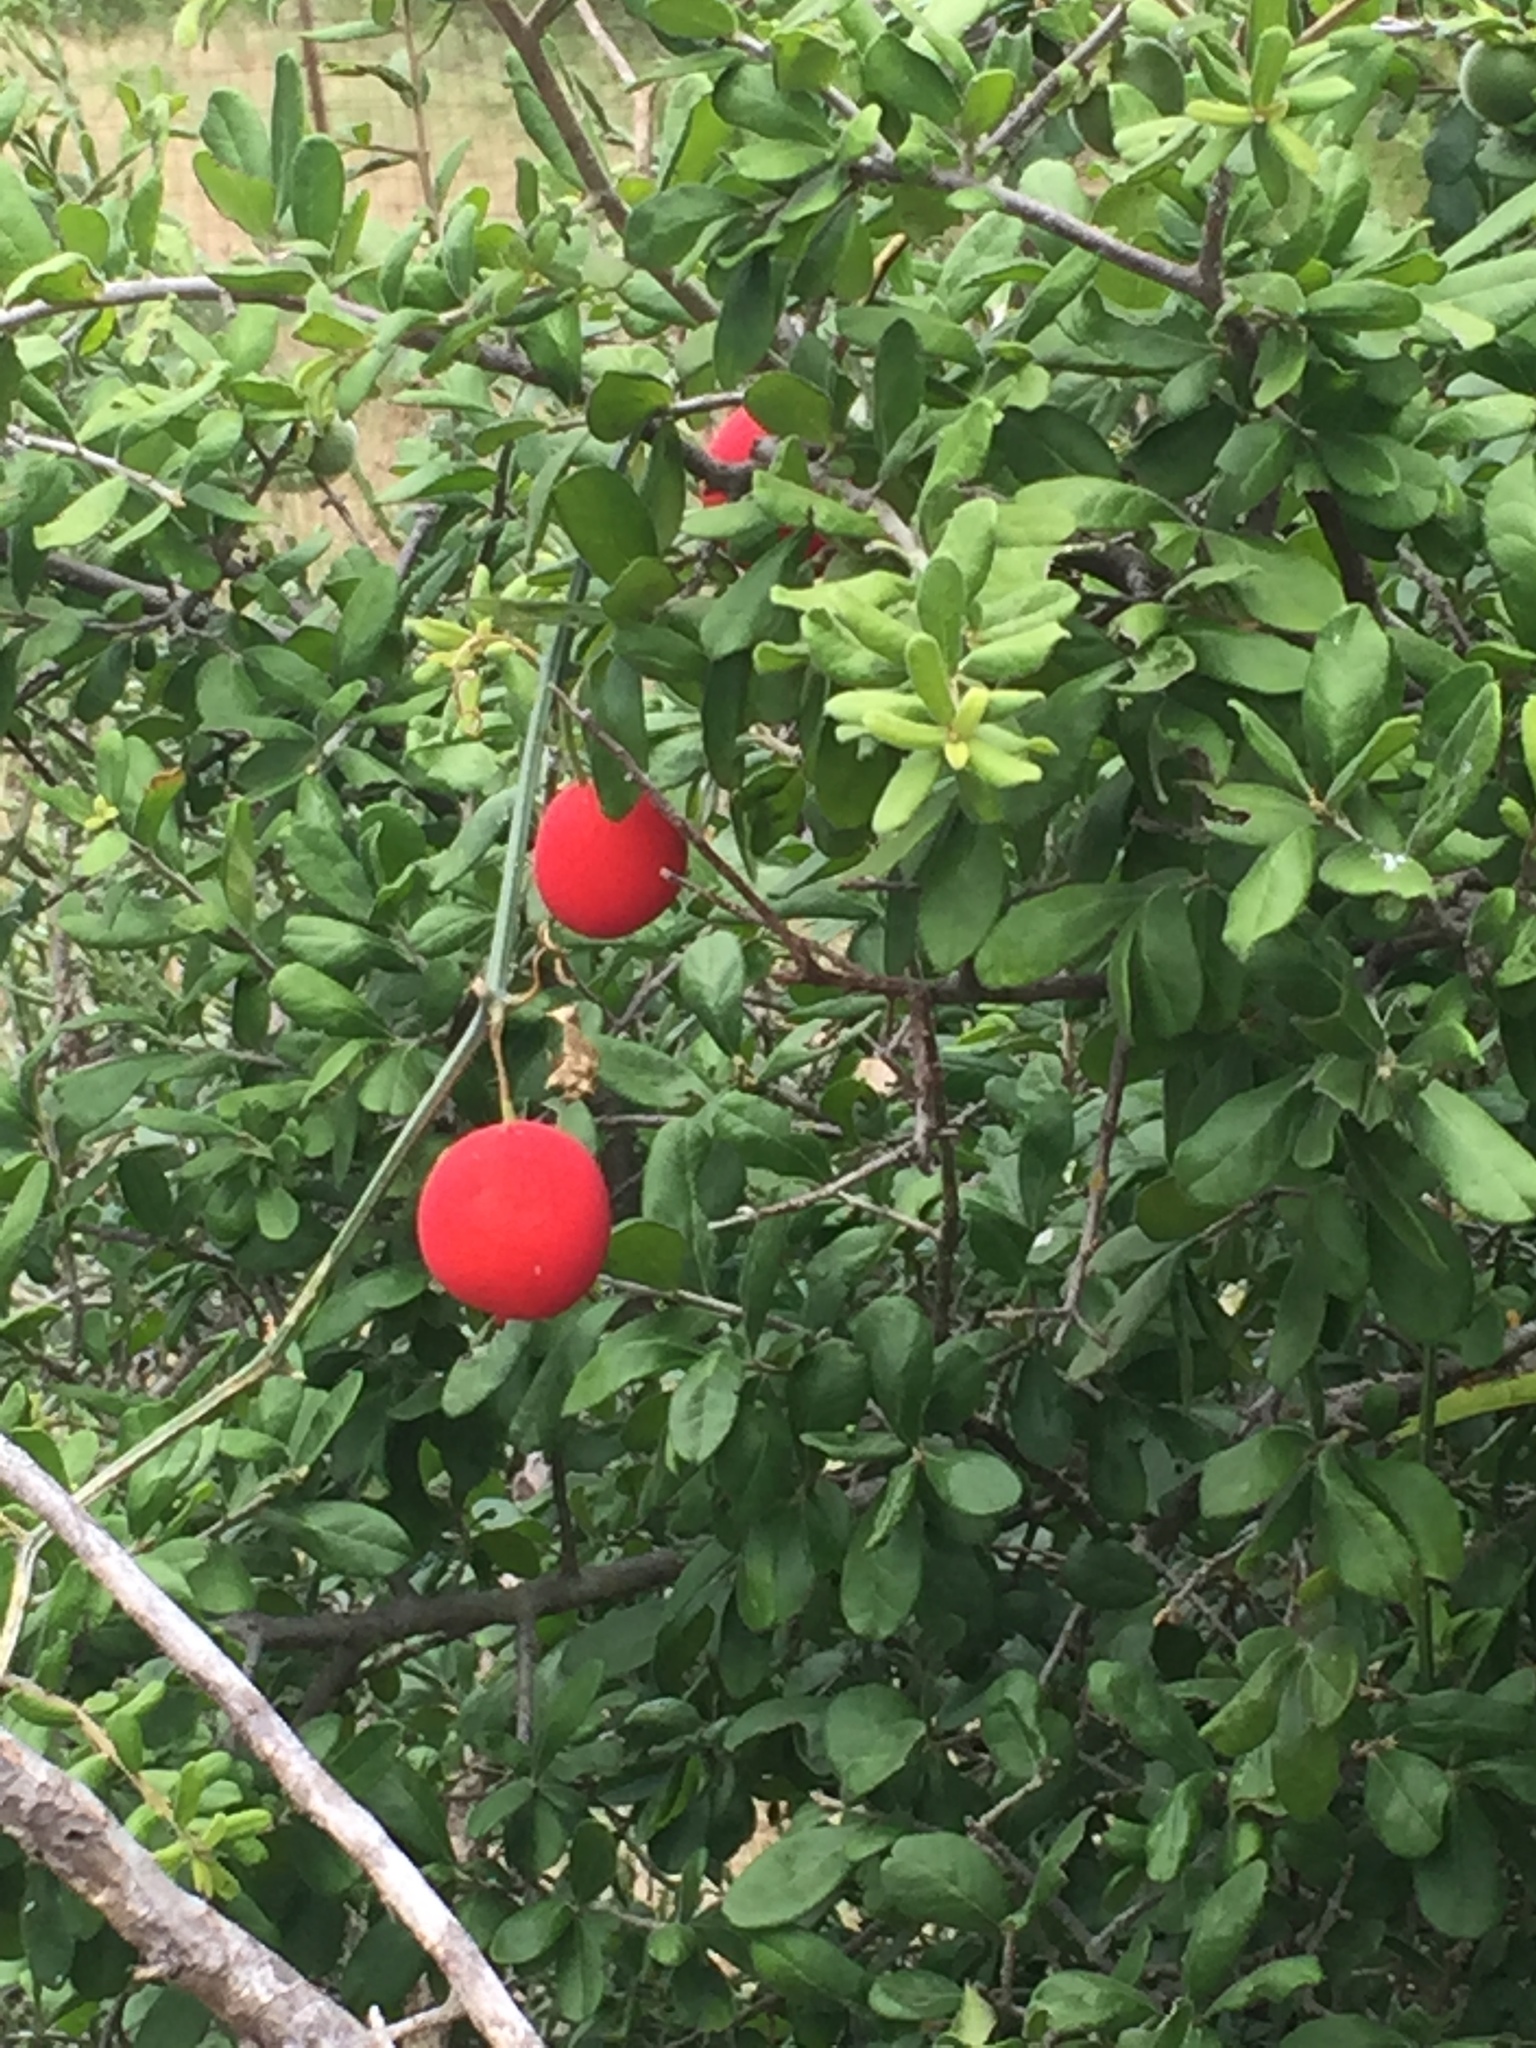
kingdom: Plantae
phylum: Tracheophyta
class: Magnoliopsida
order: Cucurbitales
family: Cucurbitaceae
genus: Ibervillea
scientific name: Ibervillea lindheimeri
